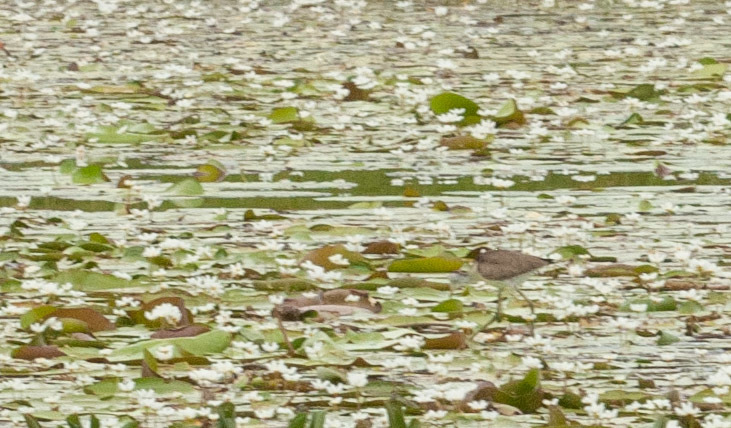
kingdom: Animalia
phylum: Chordata
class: Aves
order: Charadriiformes
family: Jacanidae
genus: Irediparra
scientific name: Irediparra gallinacea
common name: Comb-crested jacana
